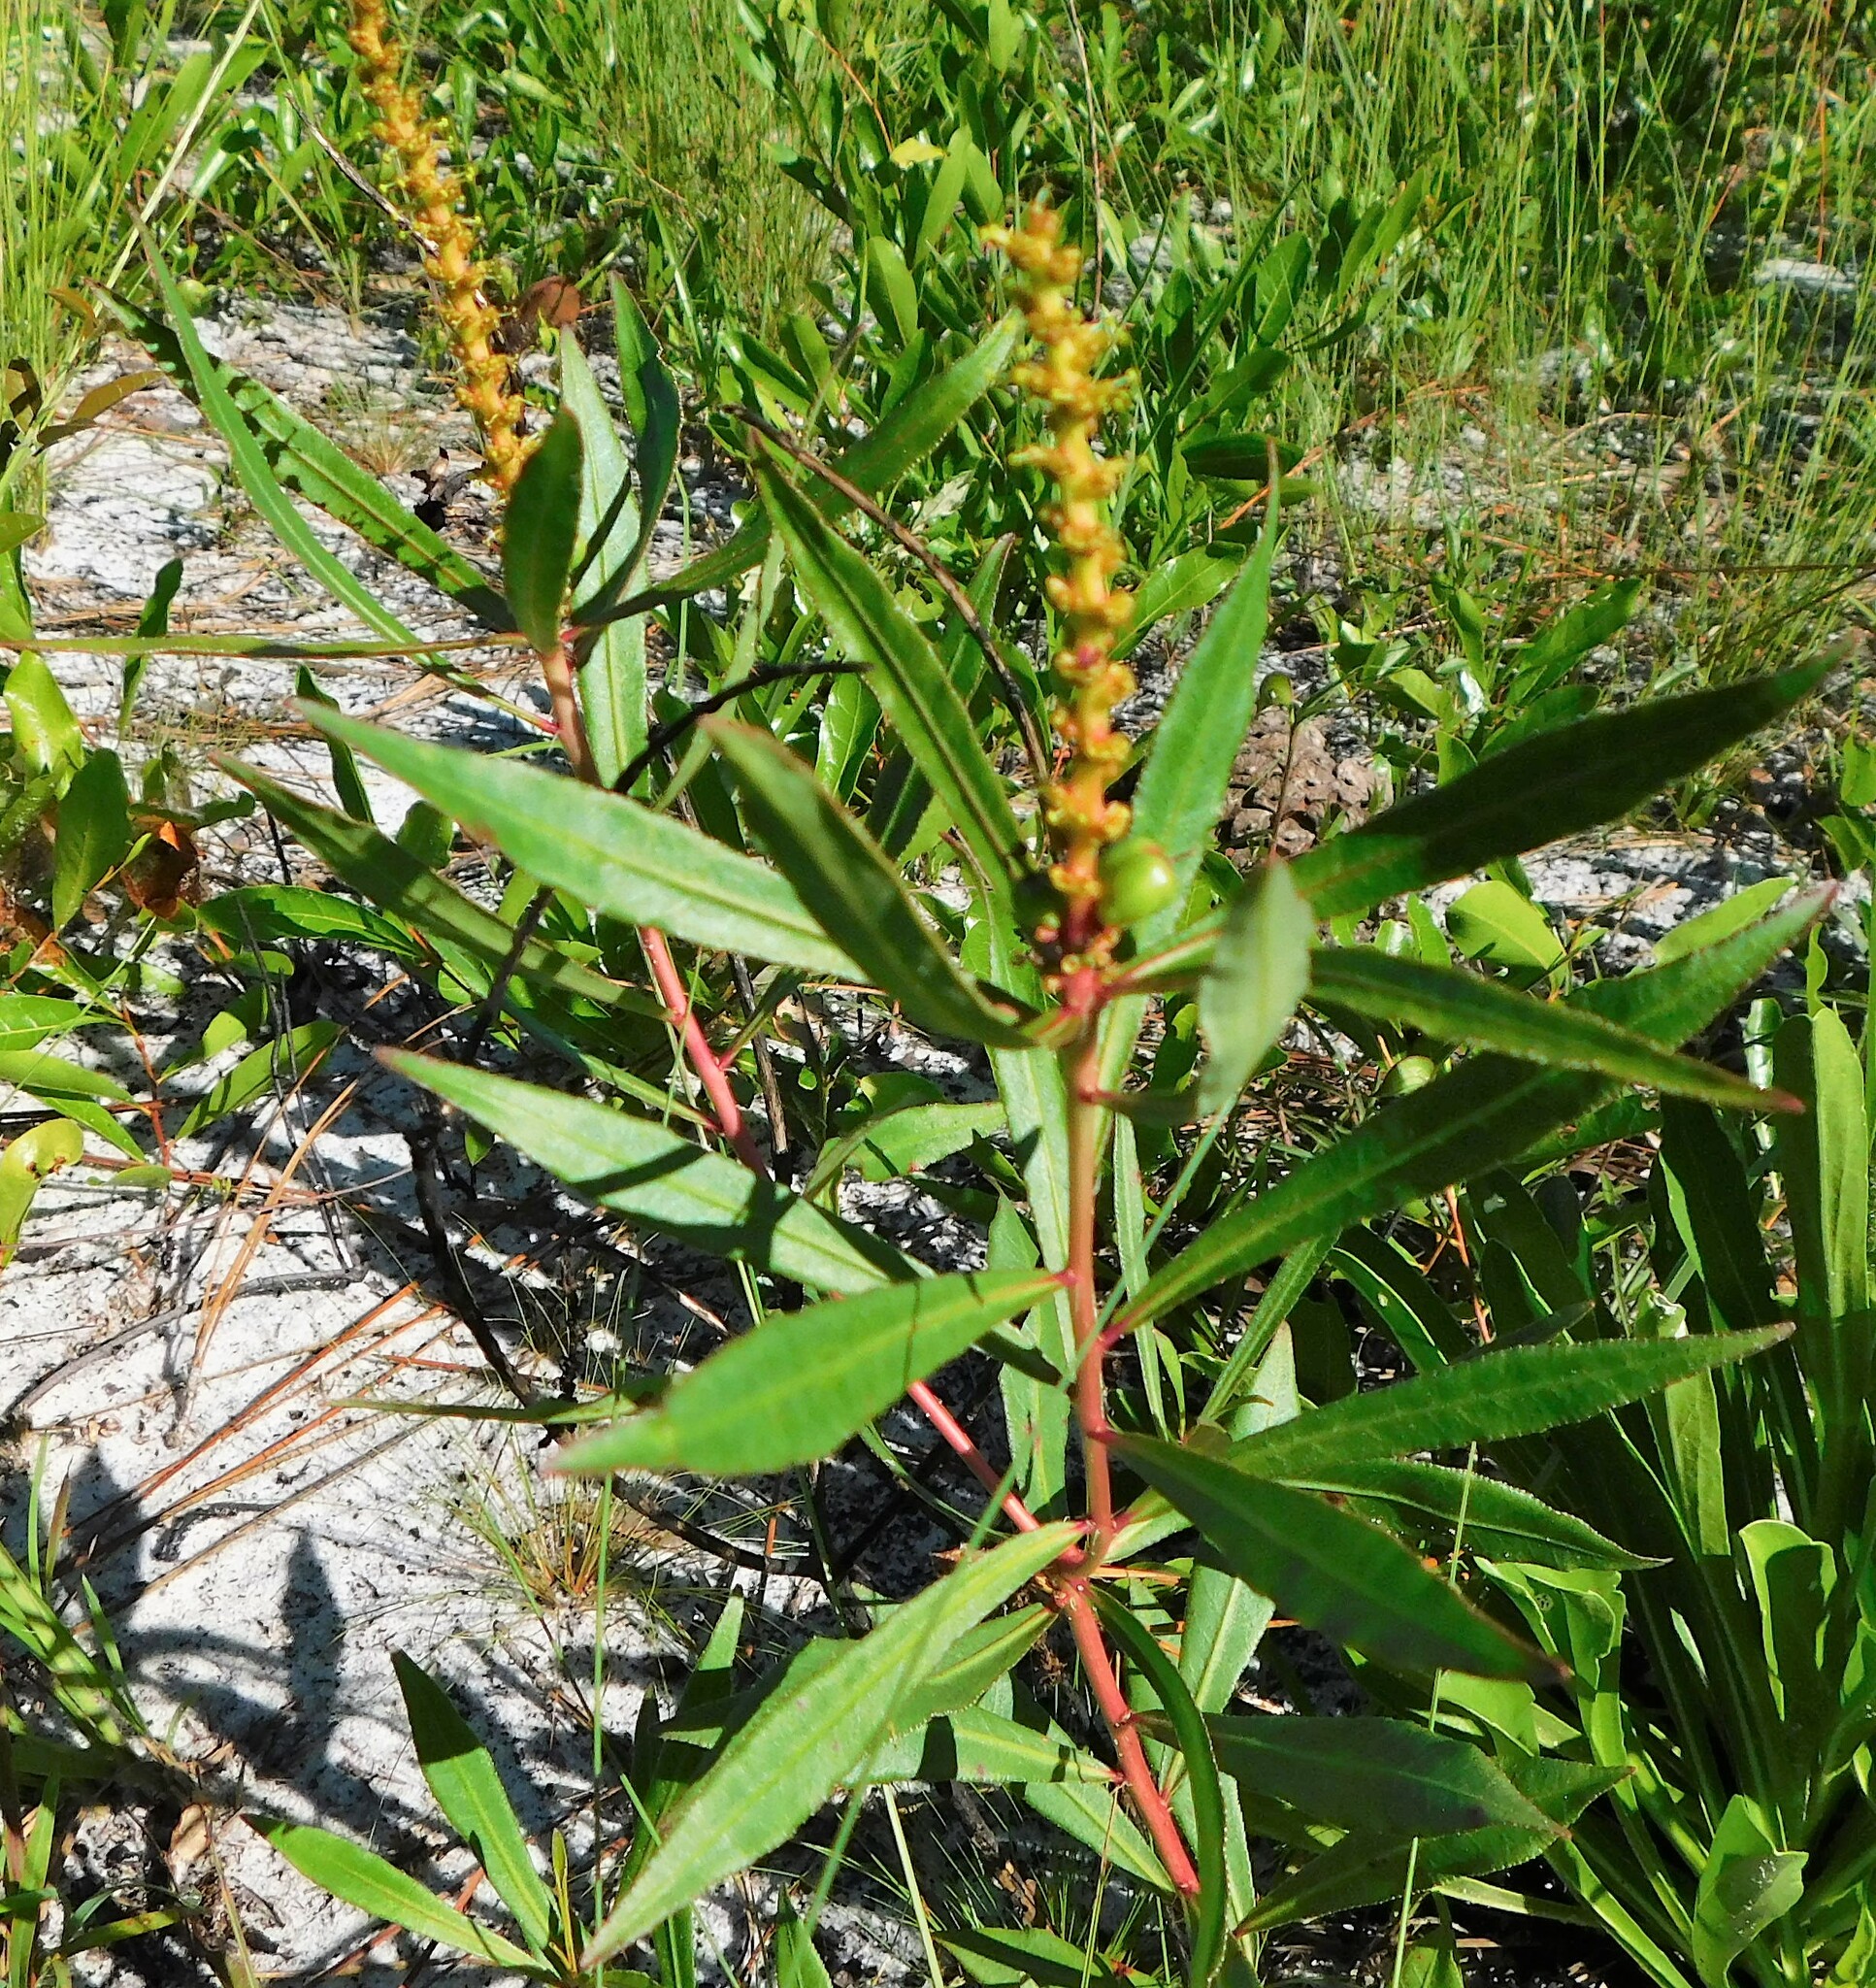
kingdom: Plantae
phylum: Tracheophyta
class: Magnoliopsida
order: Malpighiales
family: Euphorbiaceae
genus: Stillingia
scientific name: Stillingia sylvatica
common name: Queen's-delight
